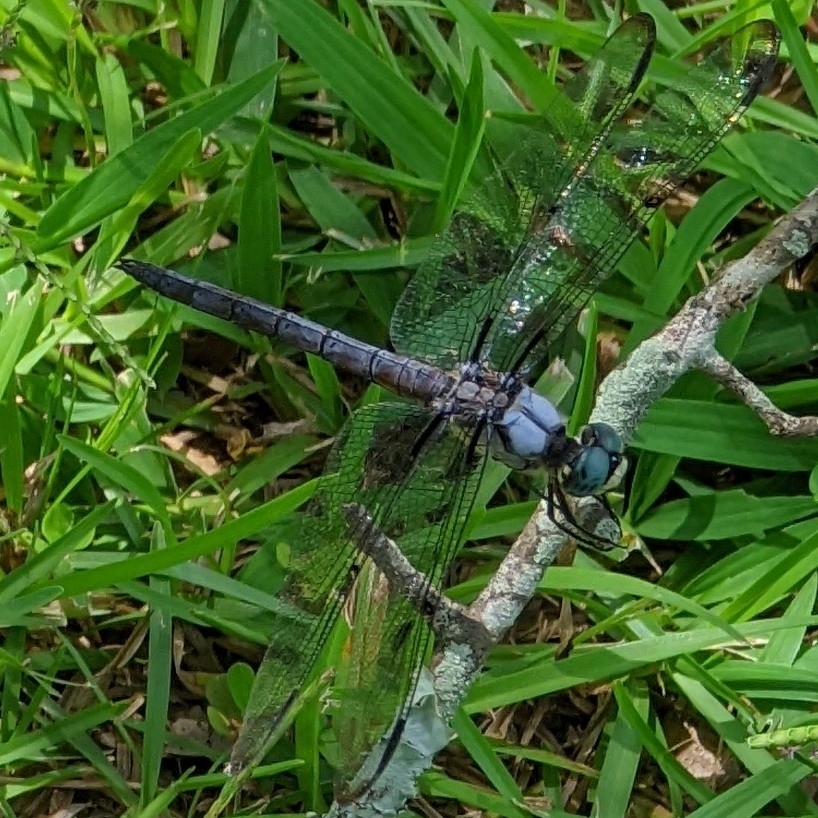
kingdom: Animalia
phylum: Arthropoda
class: Insecta
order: Odonata
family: Libellulidae
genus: Libellula
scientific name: Libellula vibrans
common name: Great blue skimmer
